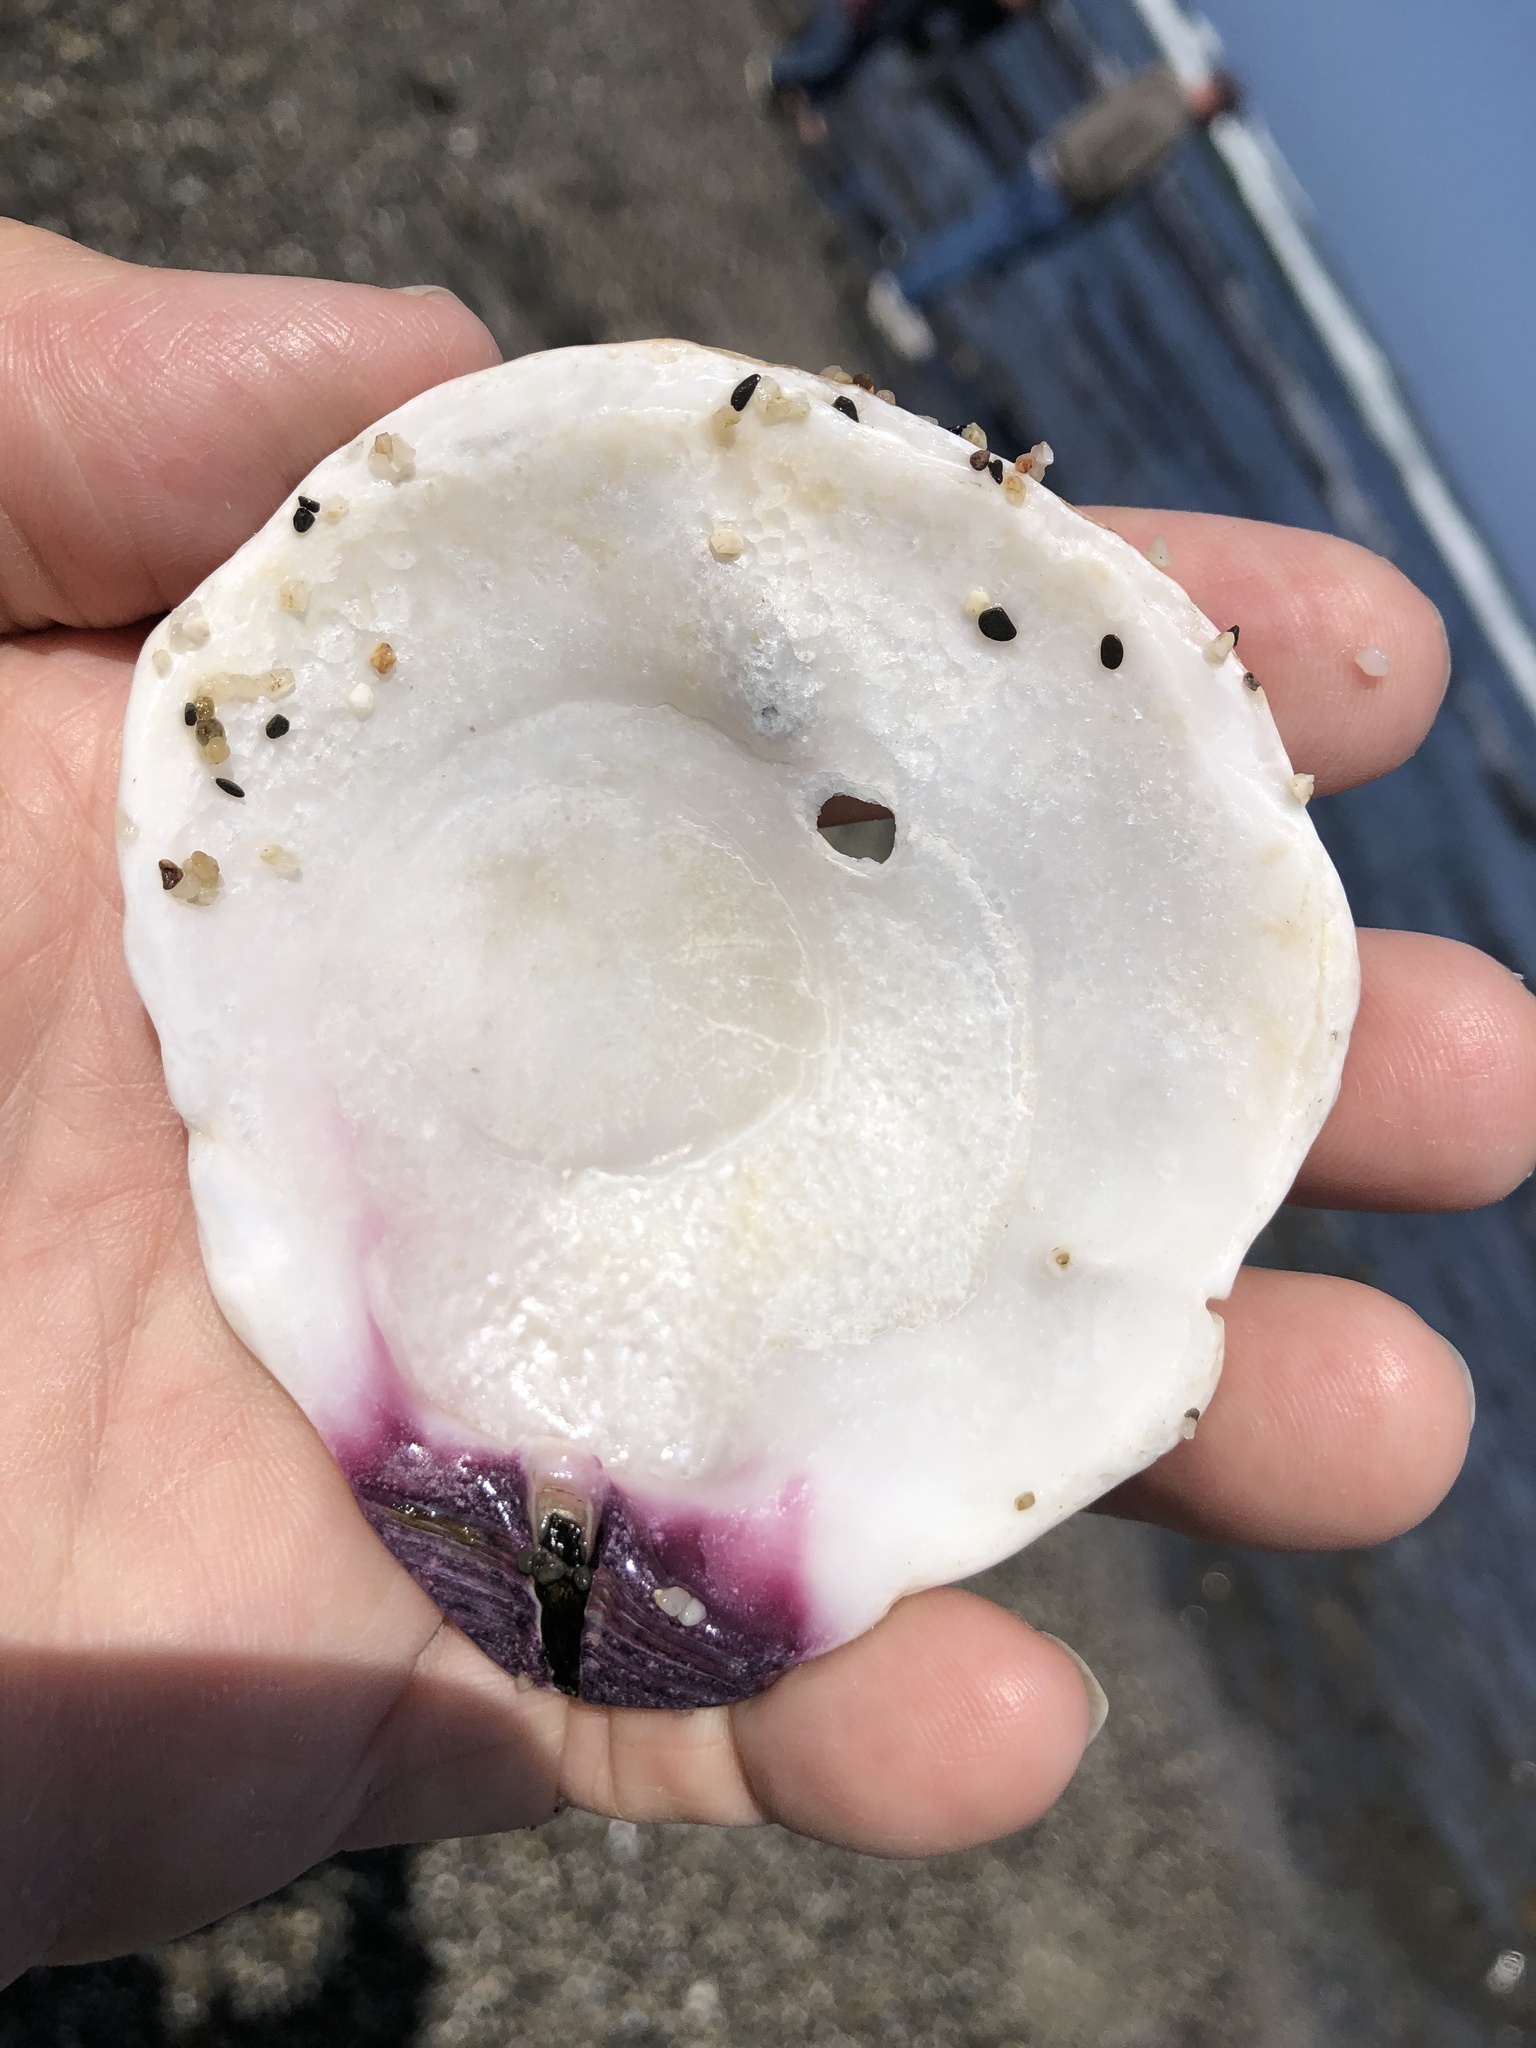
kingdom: Animalia
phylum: Mollusca
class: Bivalvia
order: Pectinida
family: Pectinidae
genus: Crassadoma
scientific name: Crassadoma gigantea
